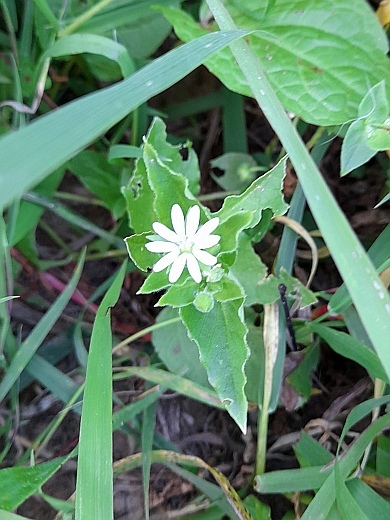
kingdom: Plantae
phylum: Tracheophyta
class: Magnoliopsida
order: Caryophyllales
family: Caryophyllaceae
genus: Stellaria
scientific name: Stellaria aquatica
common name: Water chickweed
